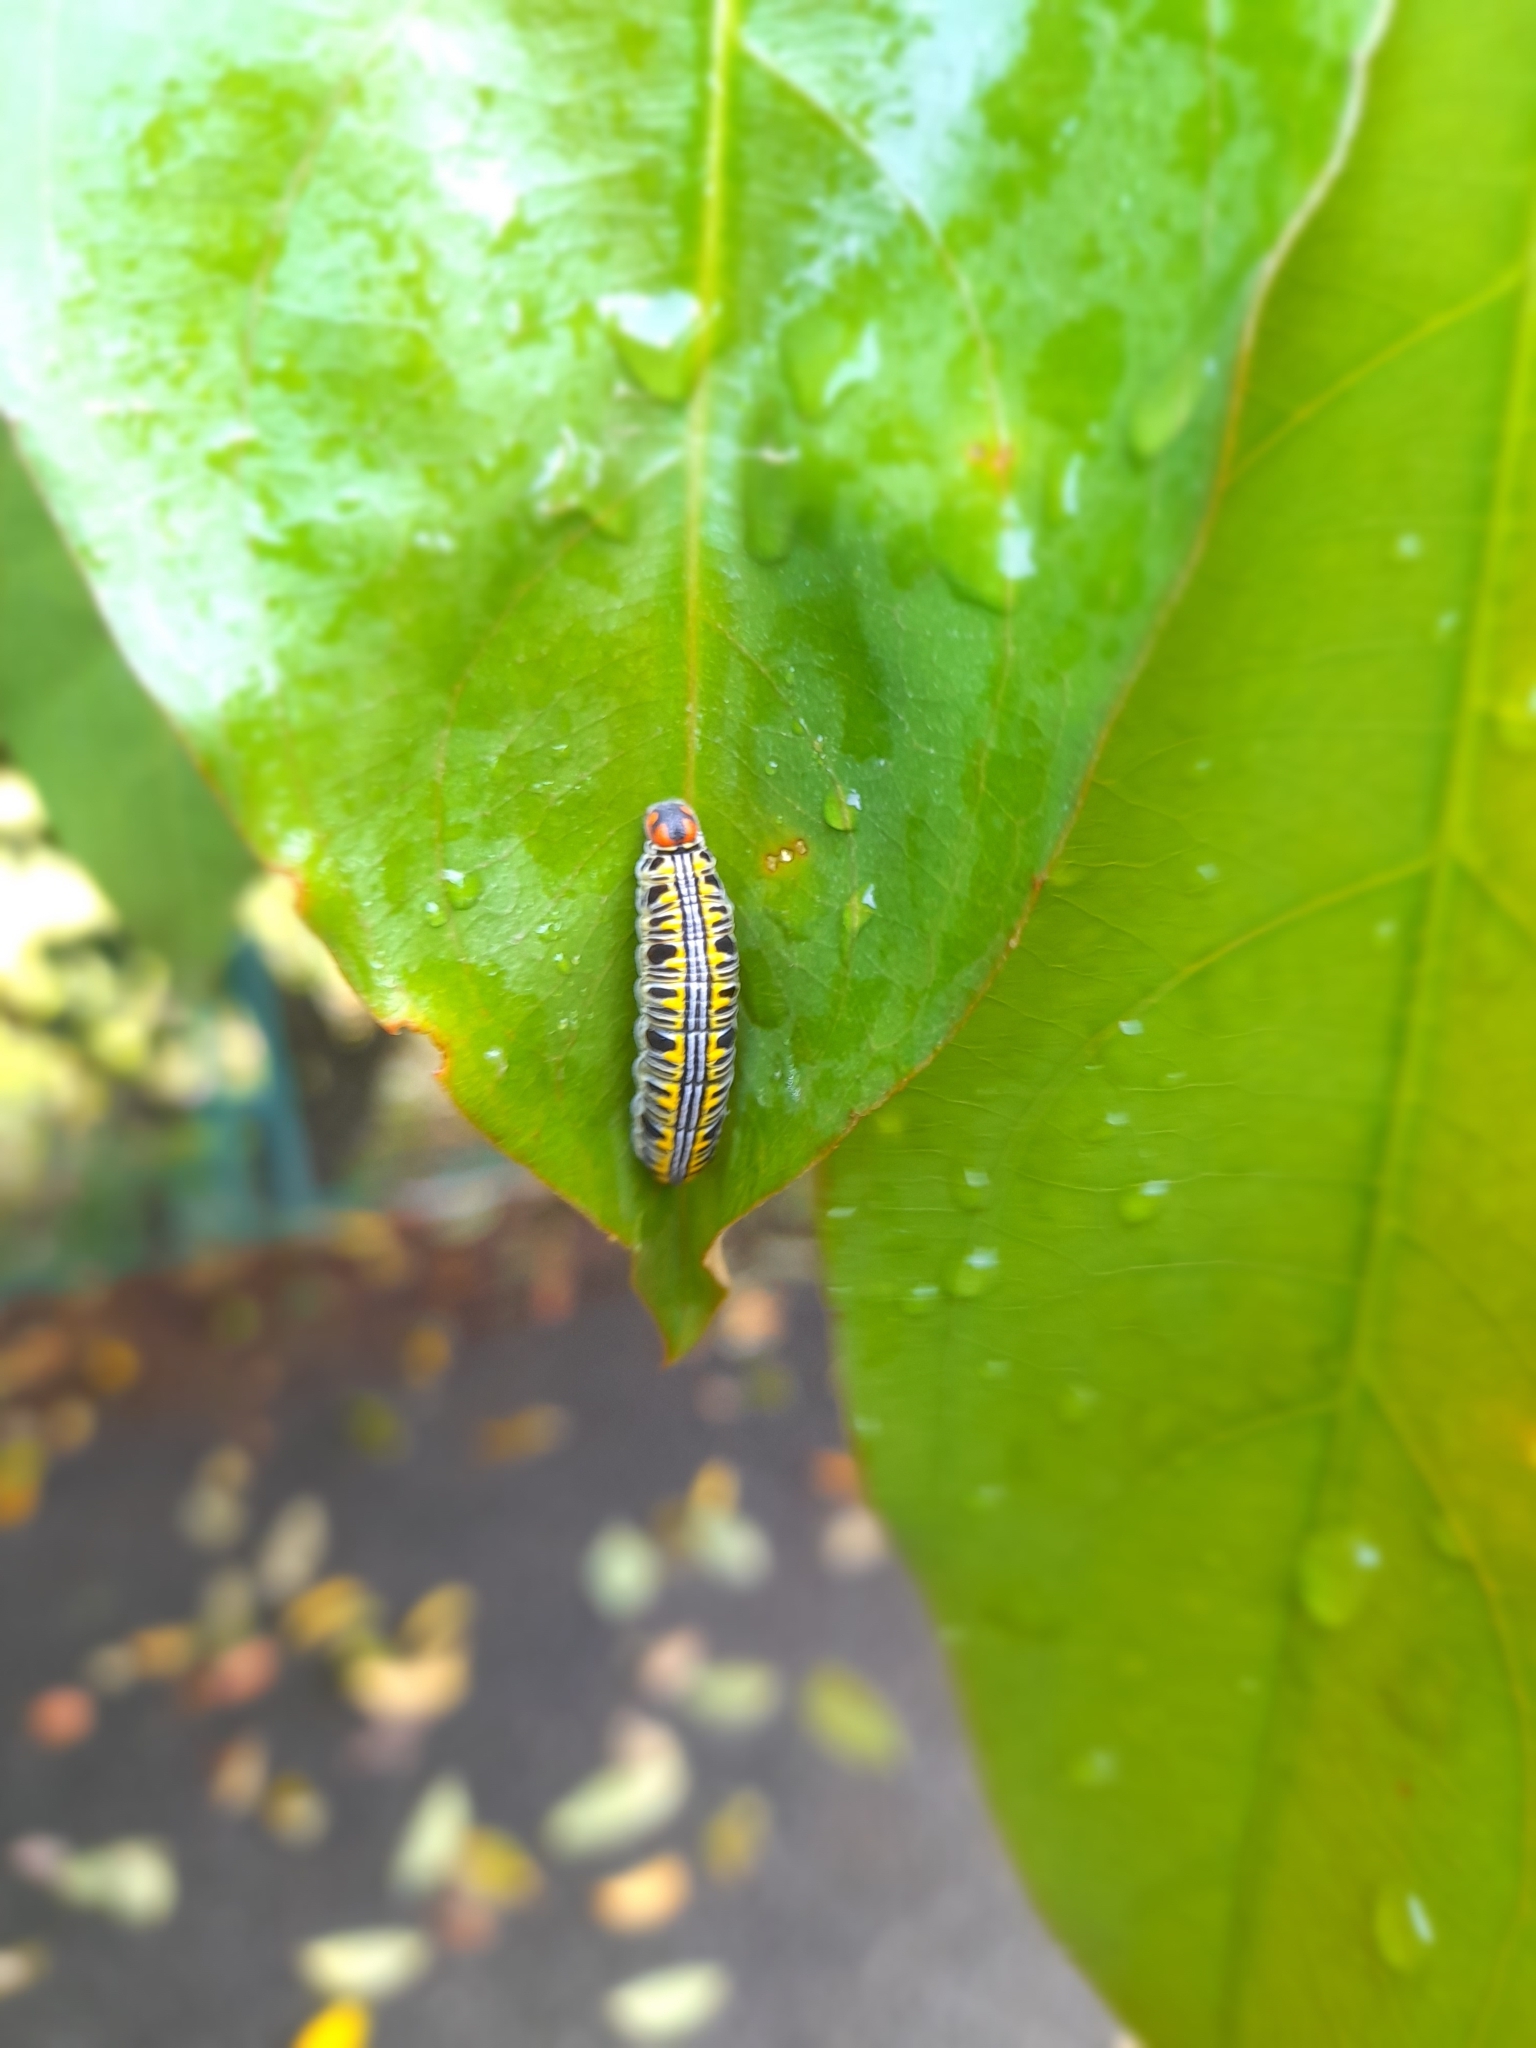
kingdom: Animalia
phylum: Arthropoda
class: Insecta
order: Lepidoptera
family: Hesperiidae
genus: Bibasis
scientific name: Bibasis sena
